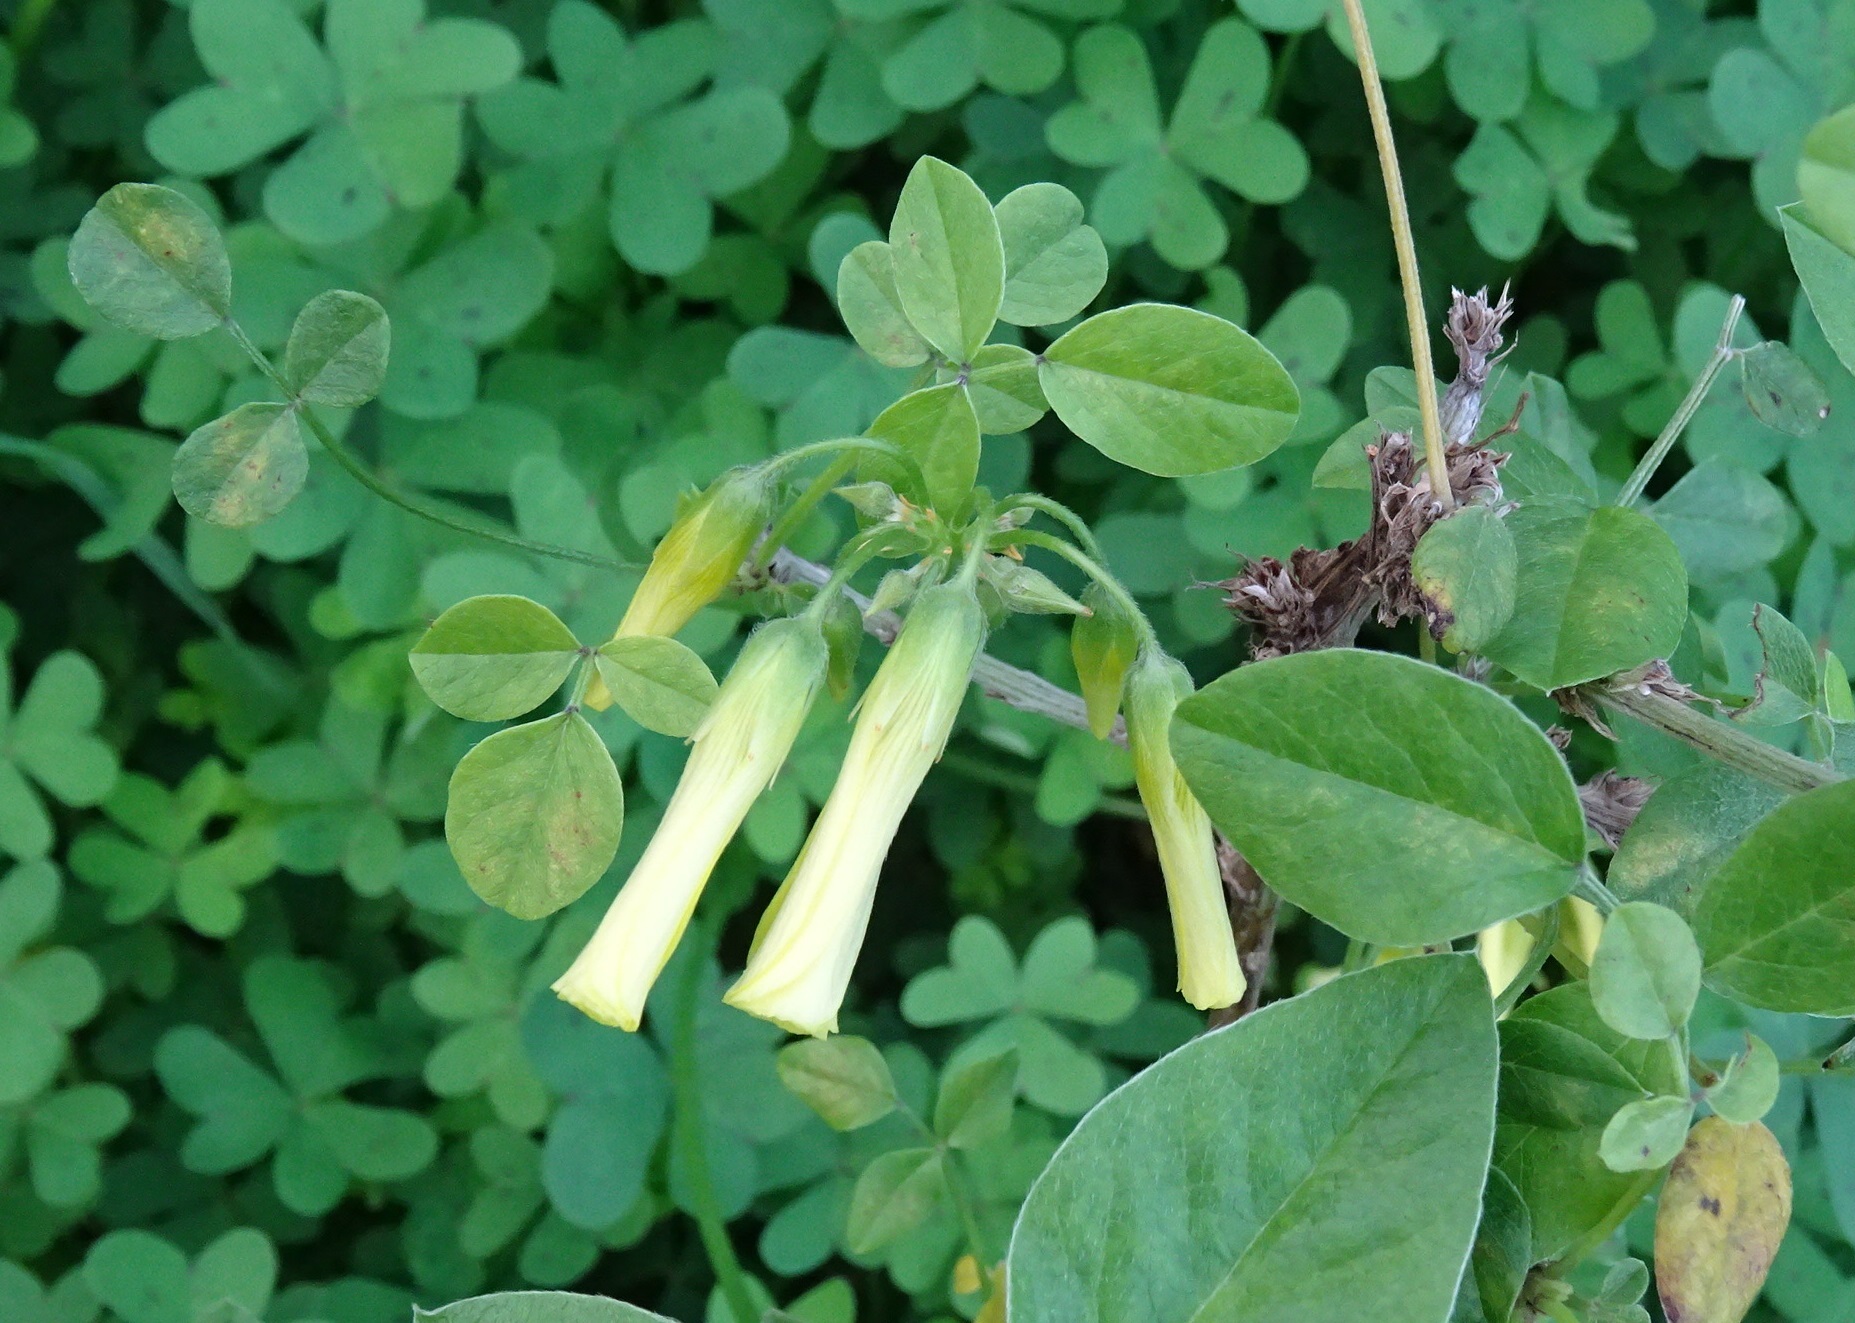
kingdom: Plantae
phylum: Tracheophyta
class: Magnoliopsida
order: Oxalidales
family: Oxalidaceae
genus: Oxalis
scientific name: Oxalis pes-caprae
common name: Bermuda-buttercup
